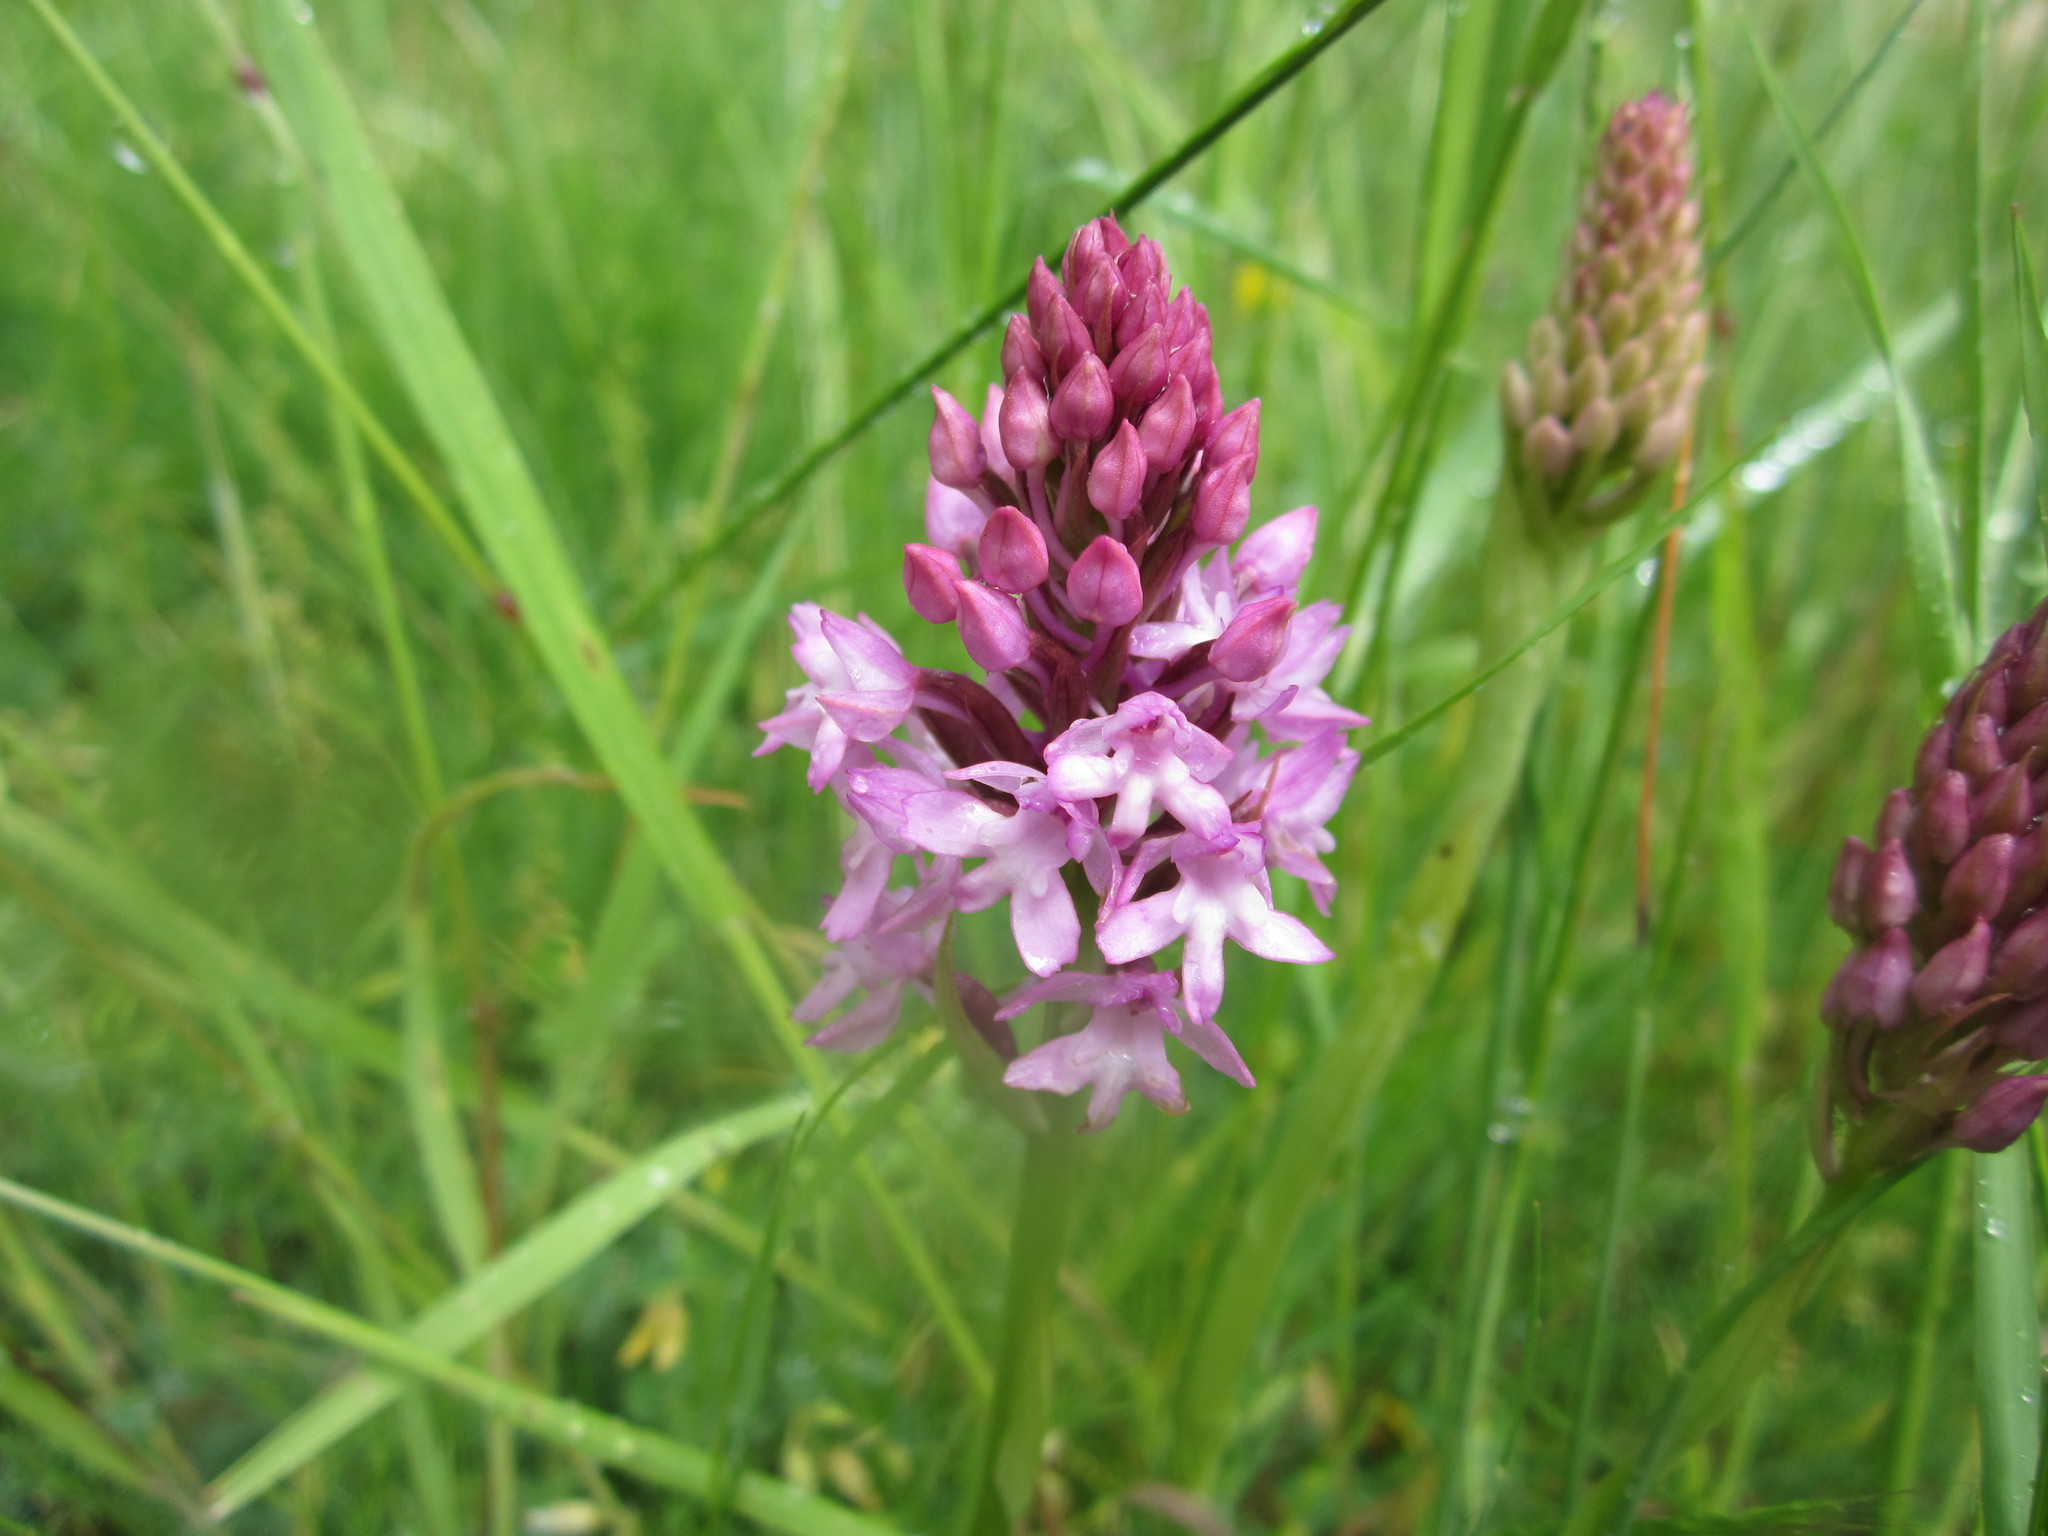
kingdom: Plantae
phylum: Tracheophyta
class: Liliopsida
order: Asparagales
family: Orchidaceae
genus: Anacamptis
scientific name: Anacamptis pyramidalis
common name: Pyramidal orchid
